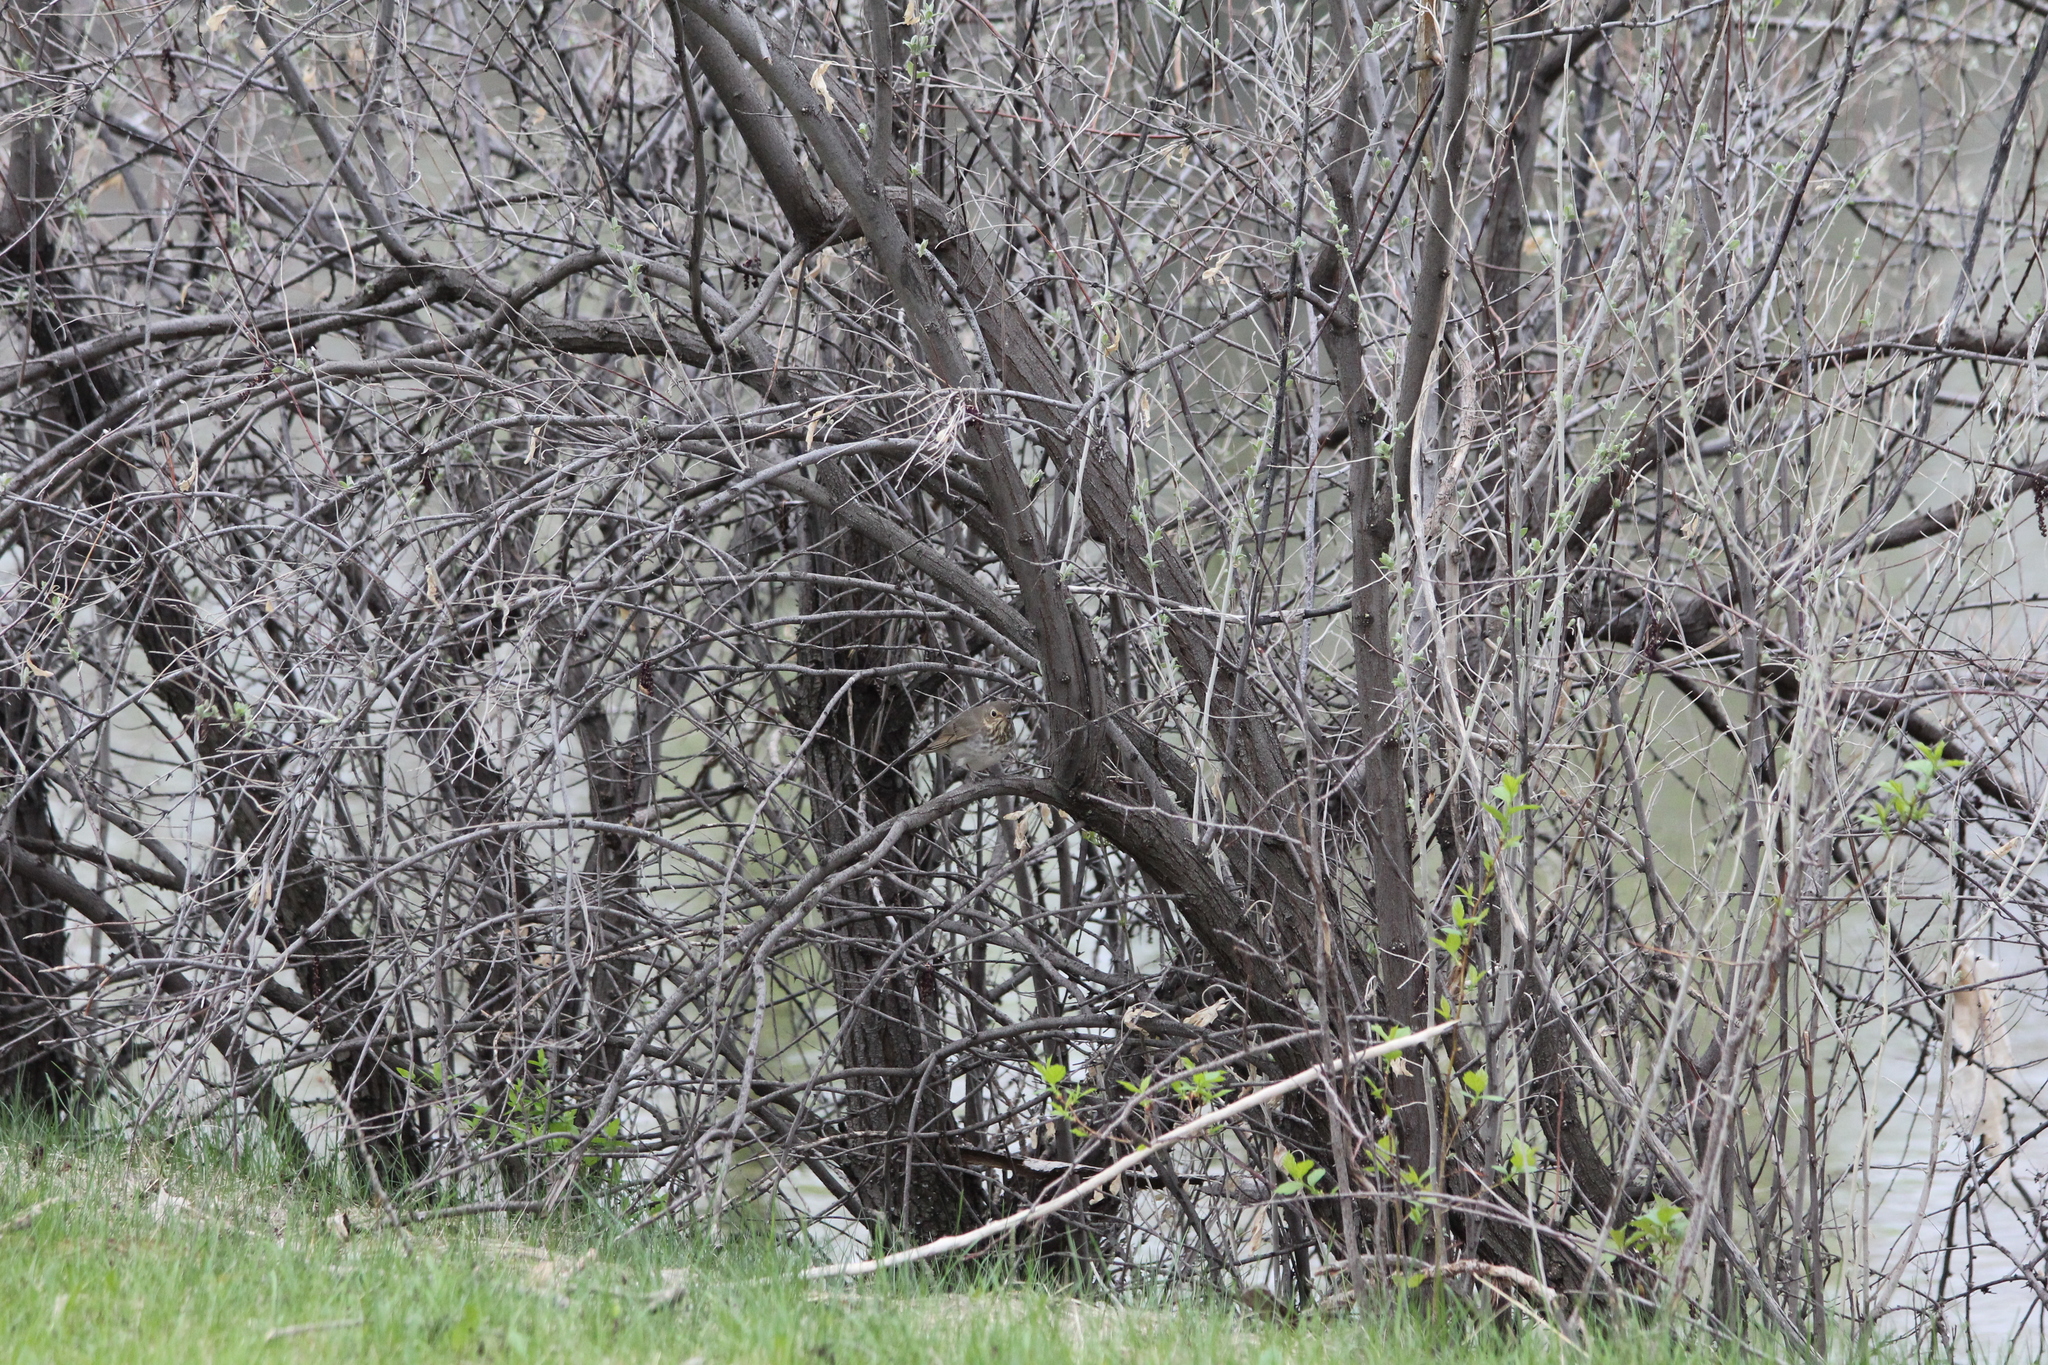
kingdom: Animalia
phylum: Chordata
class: Aves
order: Passeriformes
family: Turdidae
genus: Catharus
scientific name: Catharus ustulatus
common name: Swainson's thrush
